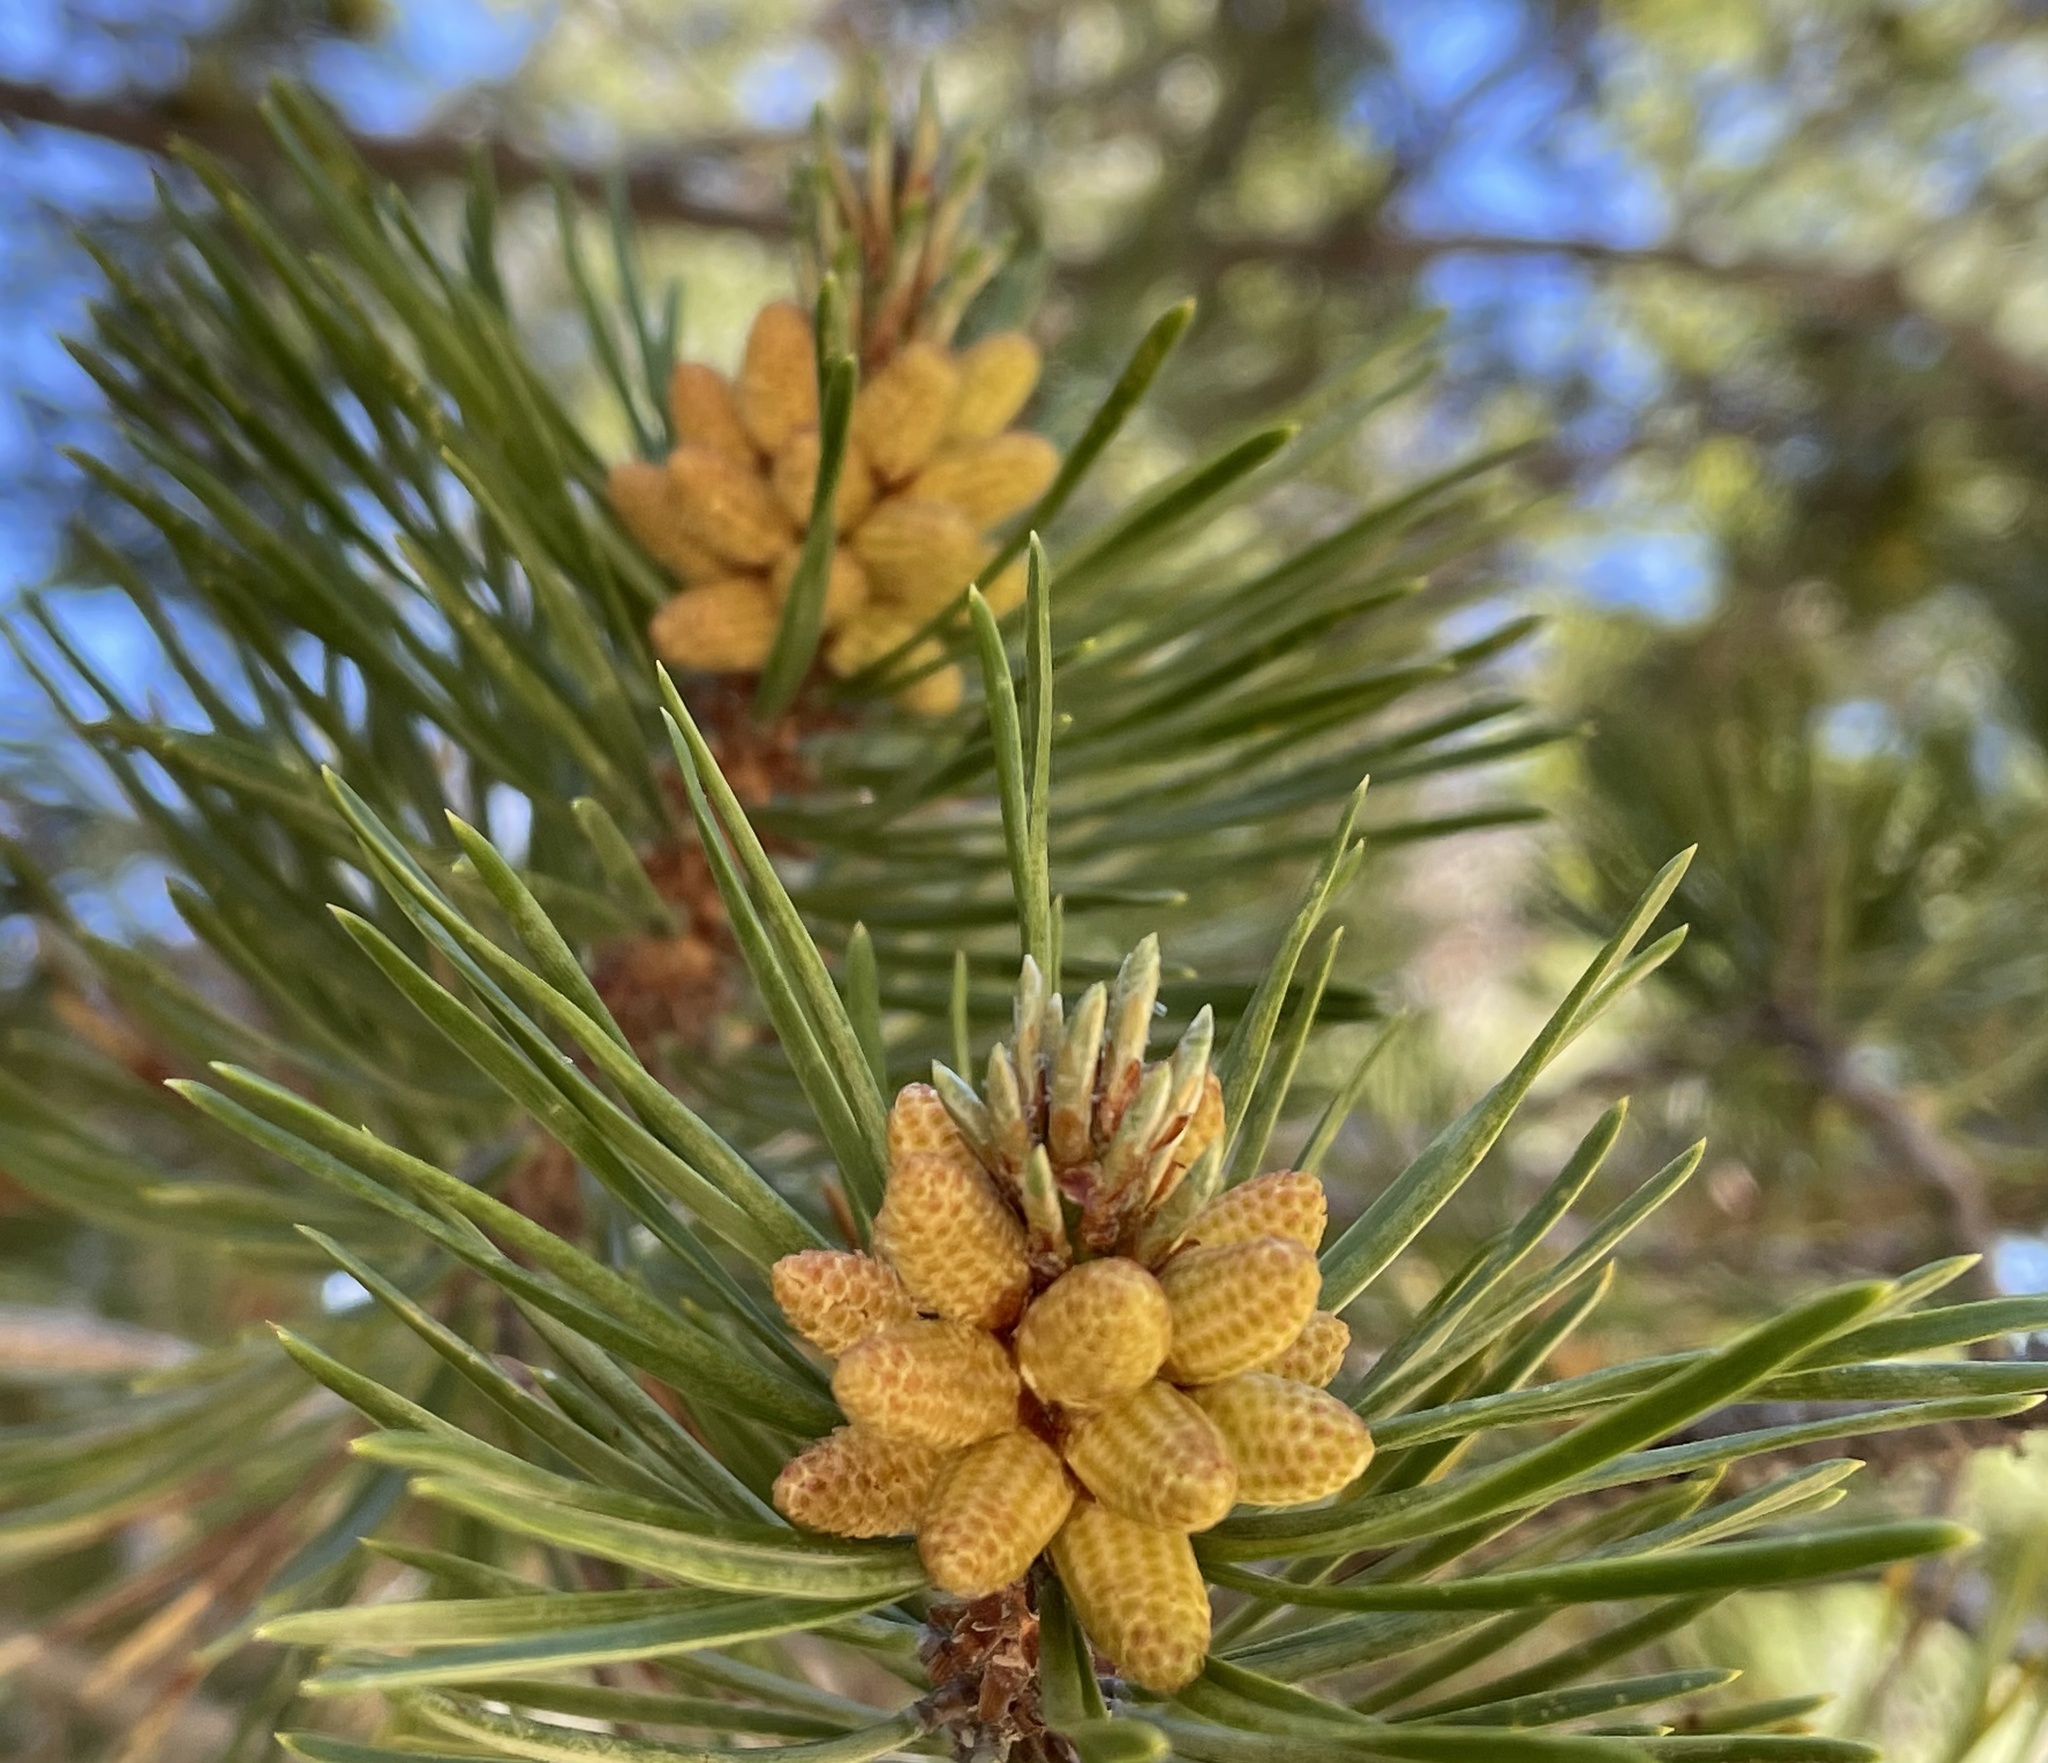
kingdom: Plantae
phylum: Tracheophyta
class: Pinopsida
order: Pinales
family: Pinaceae
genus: Pinus
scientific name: Pinus contorta
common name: Lodgepole pine
